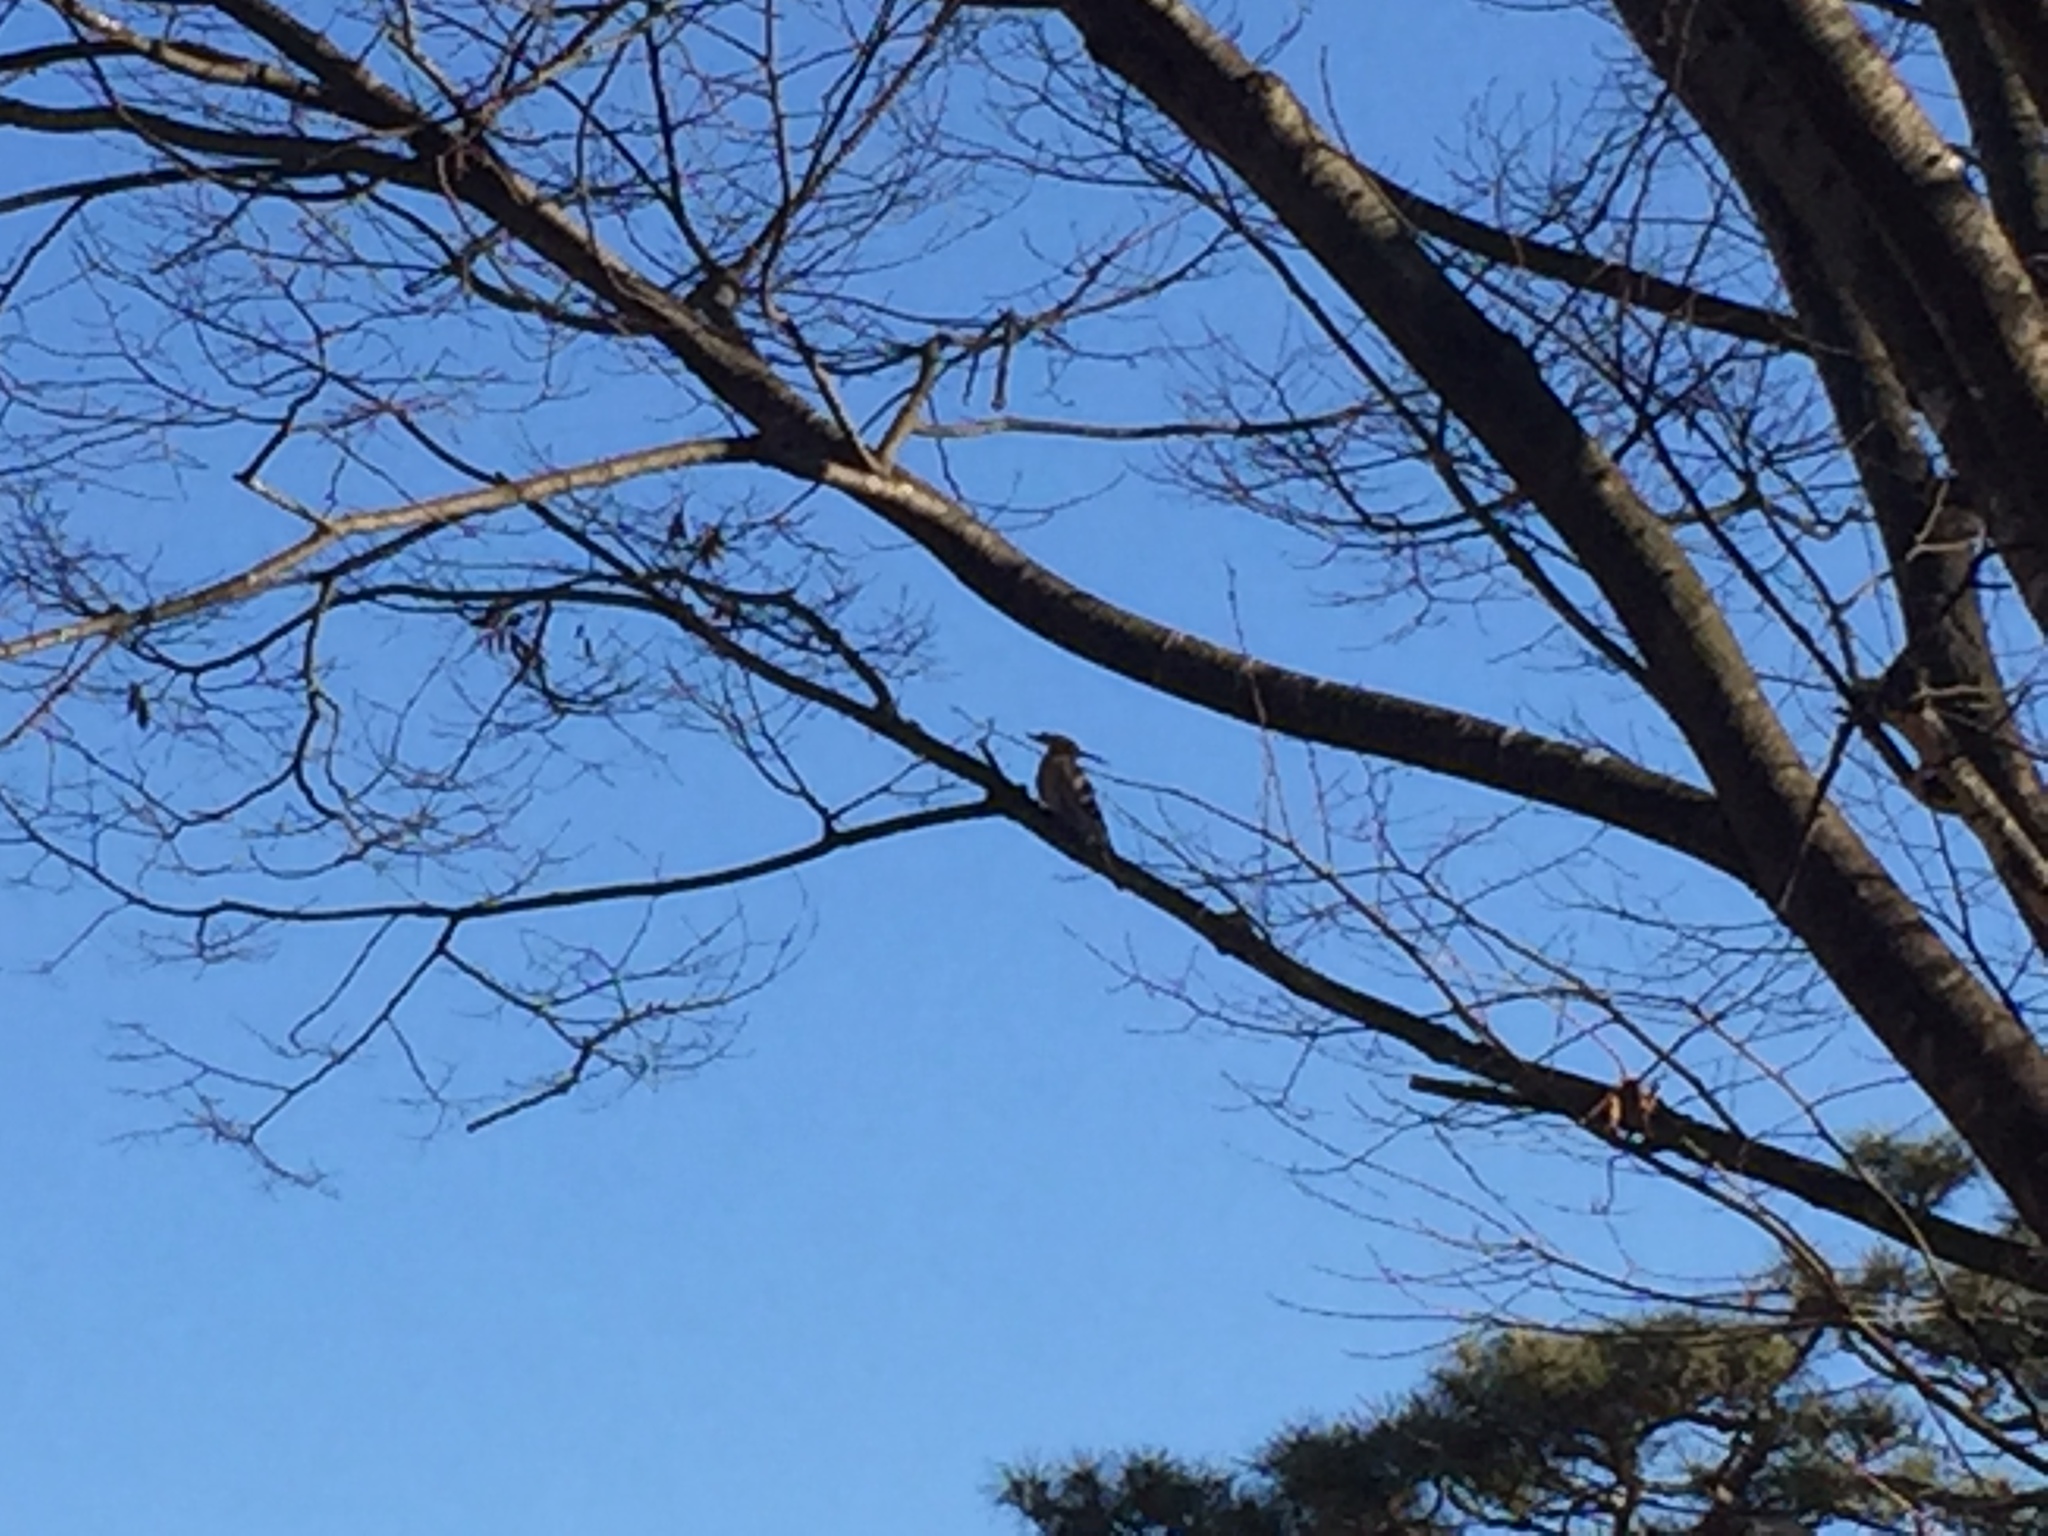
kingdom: Animalia
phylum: Chordata
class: Aves
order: Bucerotiformes
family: Upupidae
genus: Upupa
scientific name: Upupa epops
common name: Eurasian hoopoe
